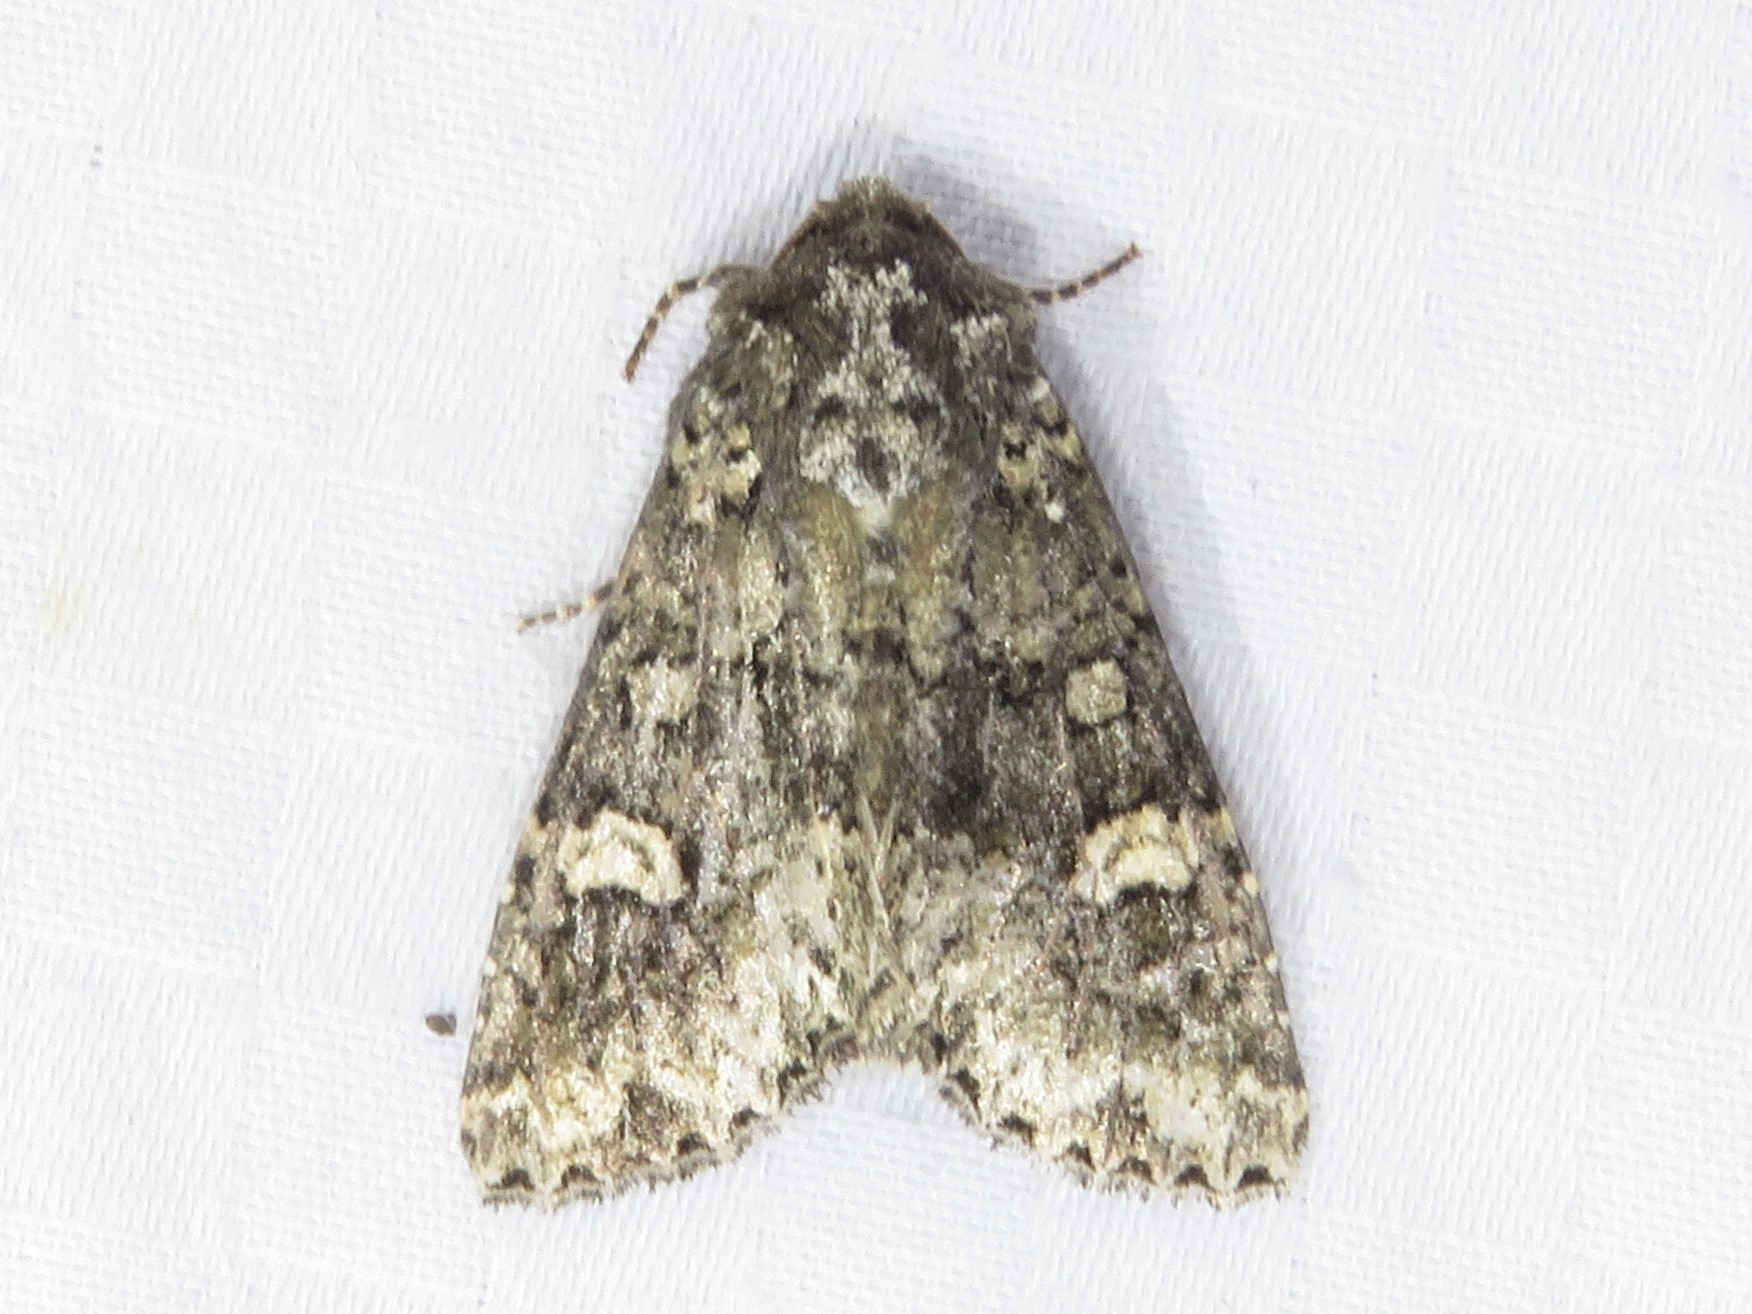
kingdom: Animalia
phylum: Arthropoda
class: Insecta
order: Lepidoptera
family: Noctuidae
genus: Melanchra
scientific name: Melanchra adjuncta
